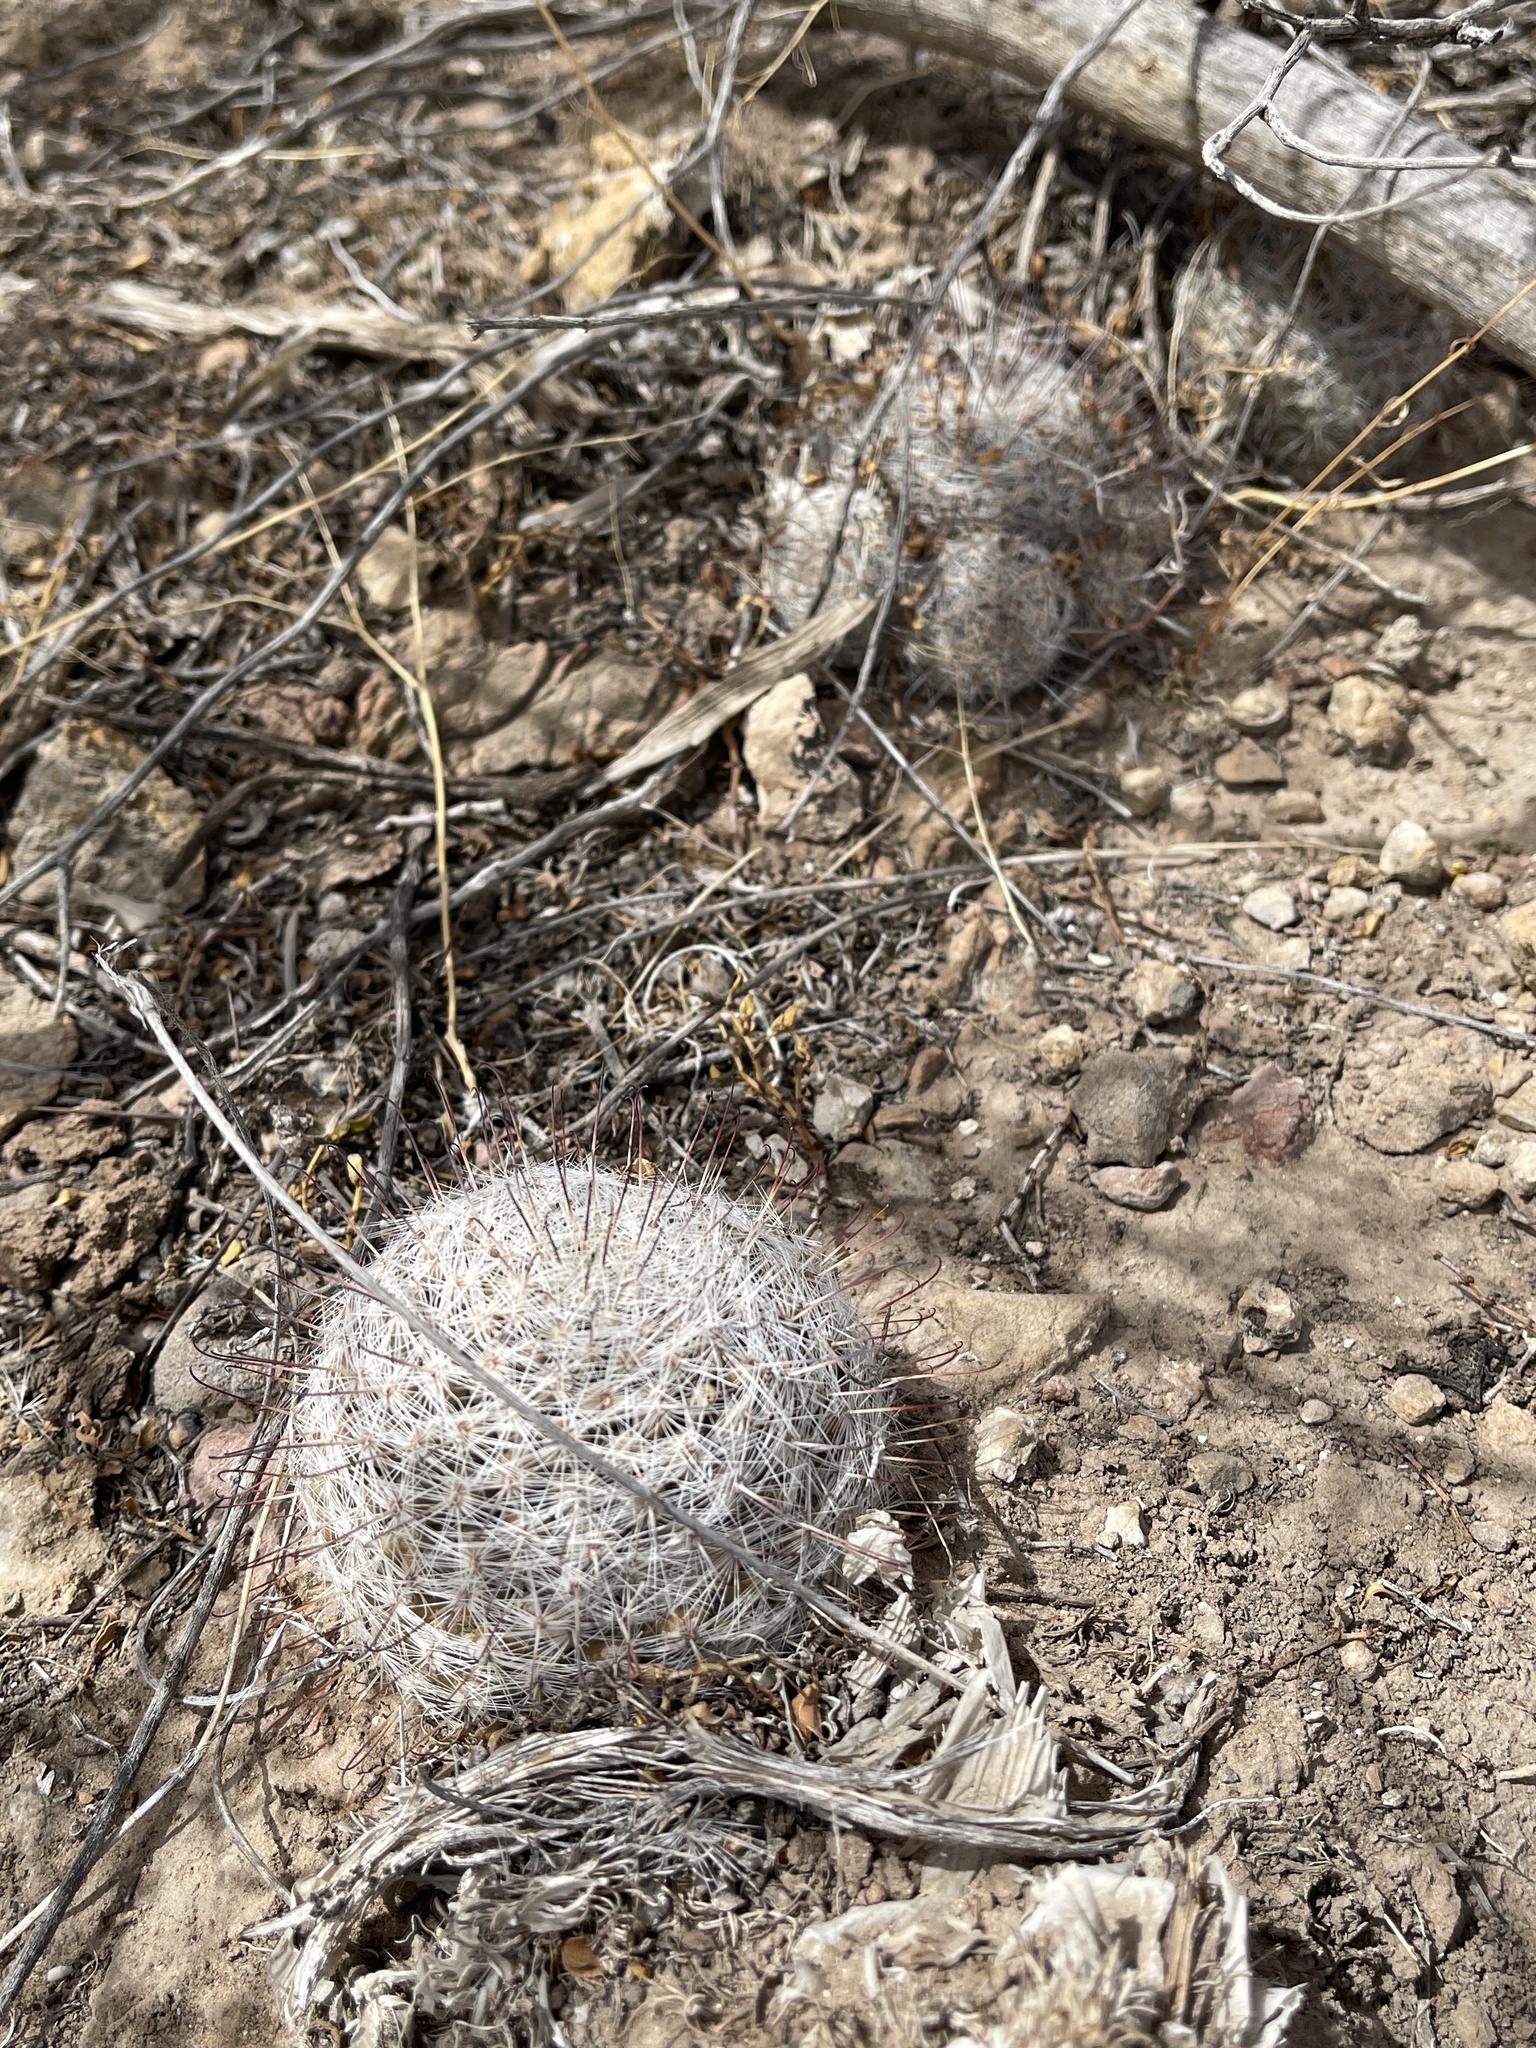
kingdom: Plantae
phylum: Tracheophyta
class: Magnoliopsida
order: Caryophyllales
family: Cactaceae
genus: Cochemiea
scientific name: Cochemiea grahamii
